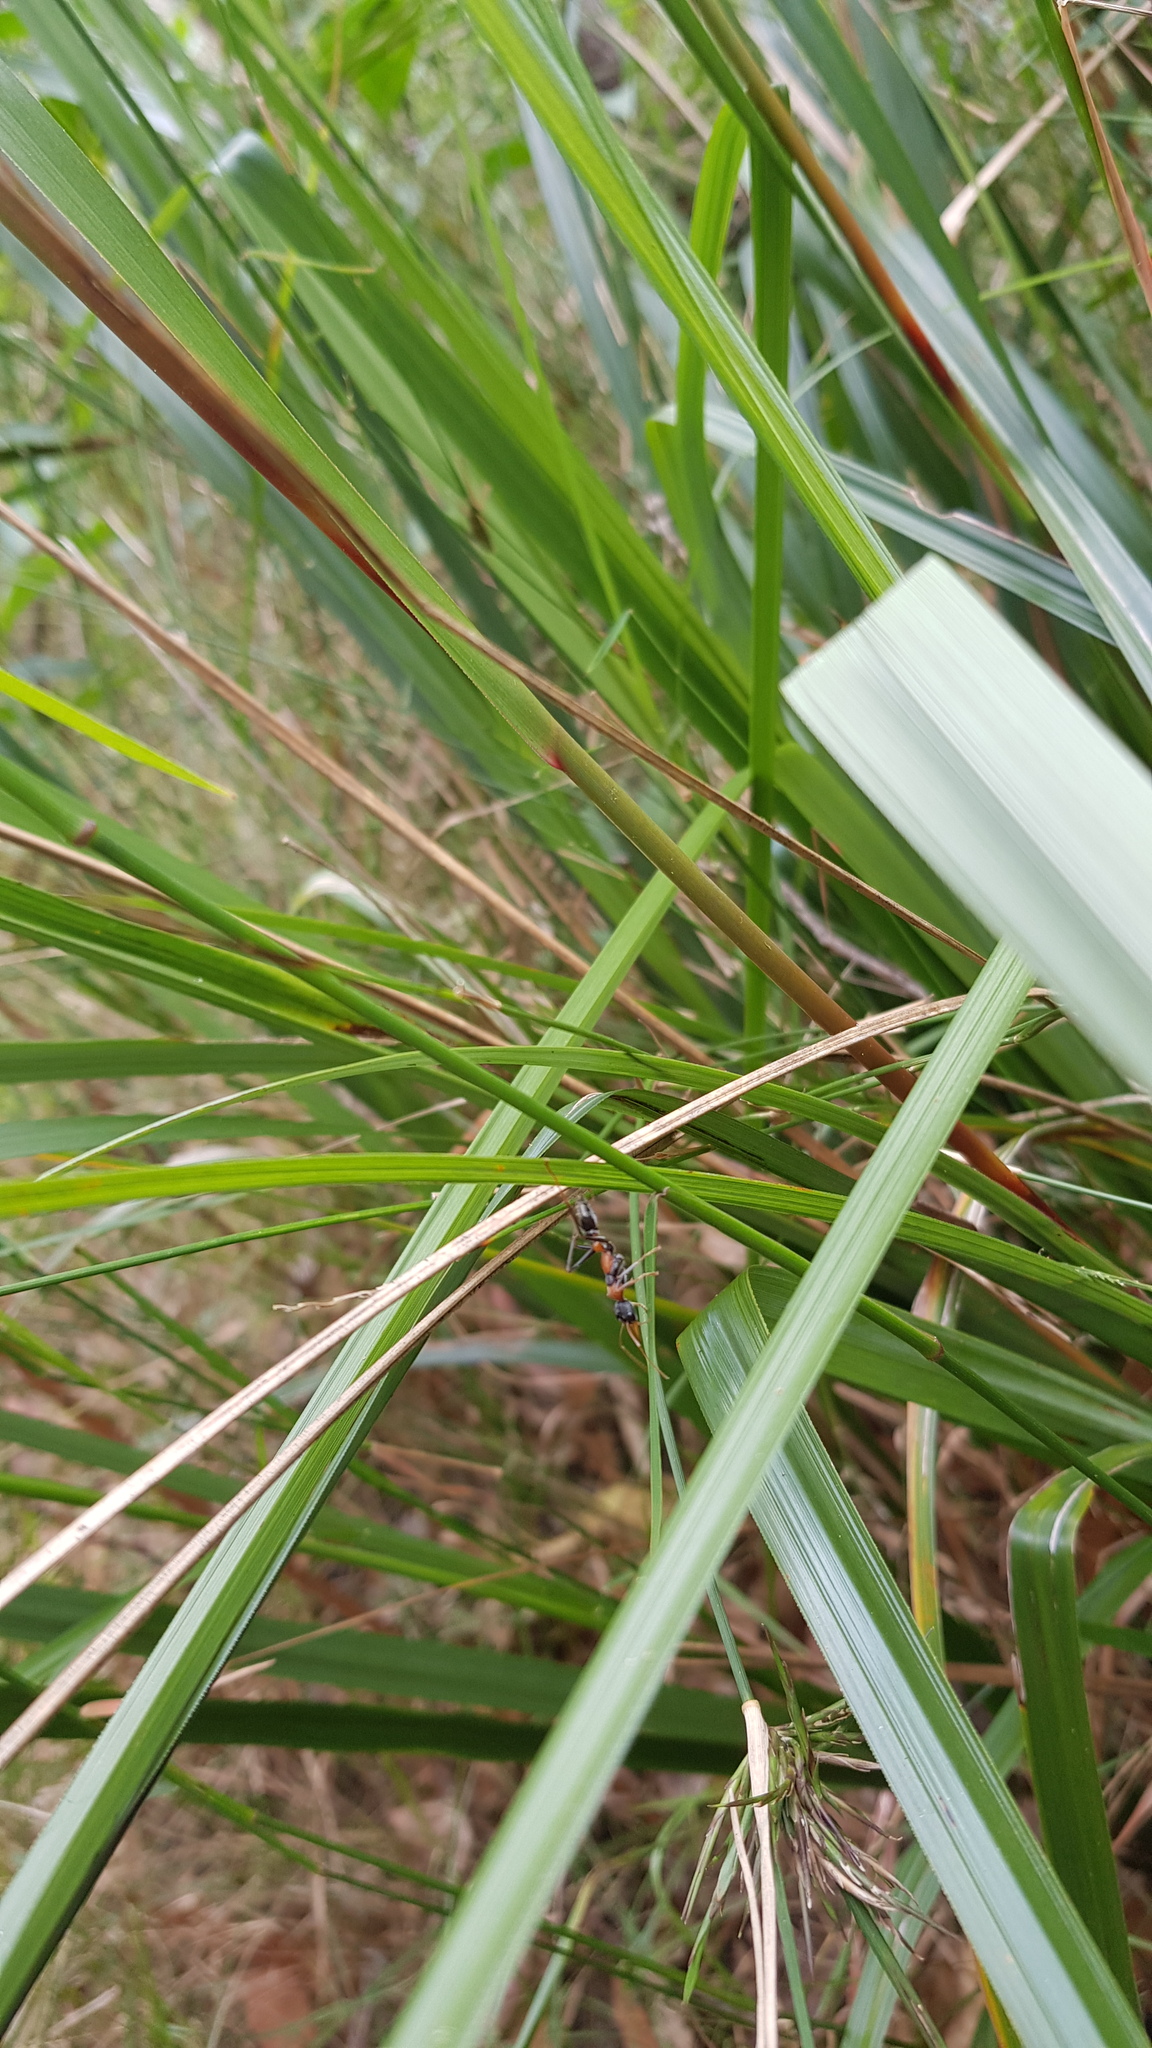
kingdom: Animalia
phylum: Arthropoda
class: Insecta
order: Hymenoptera
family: Formicidae
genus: Myrmecia
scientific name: Myrmecia nigrocincta
